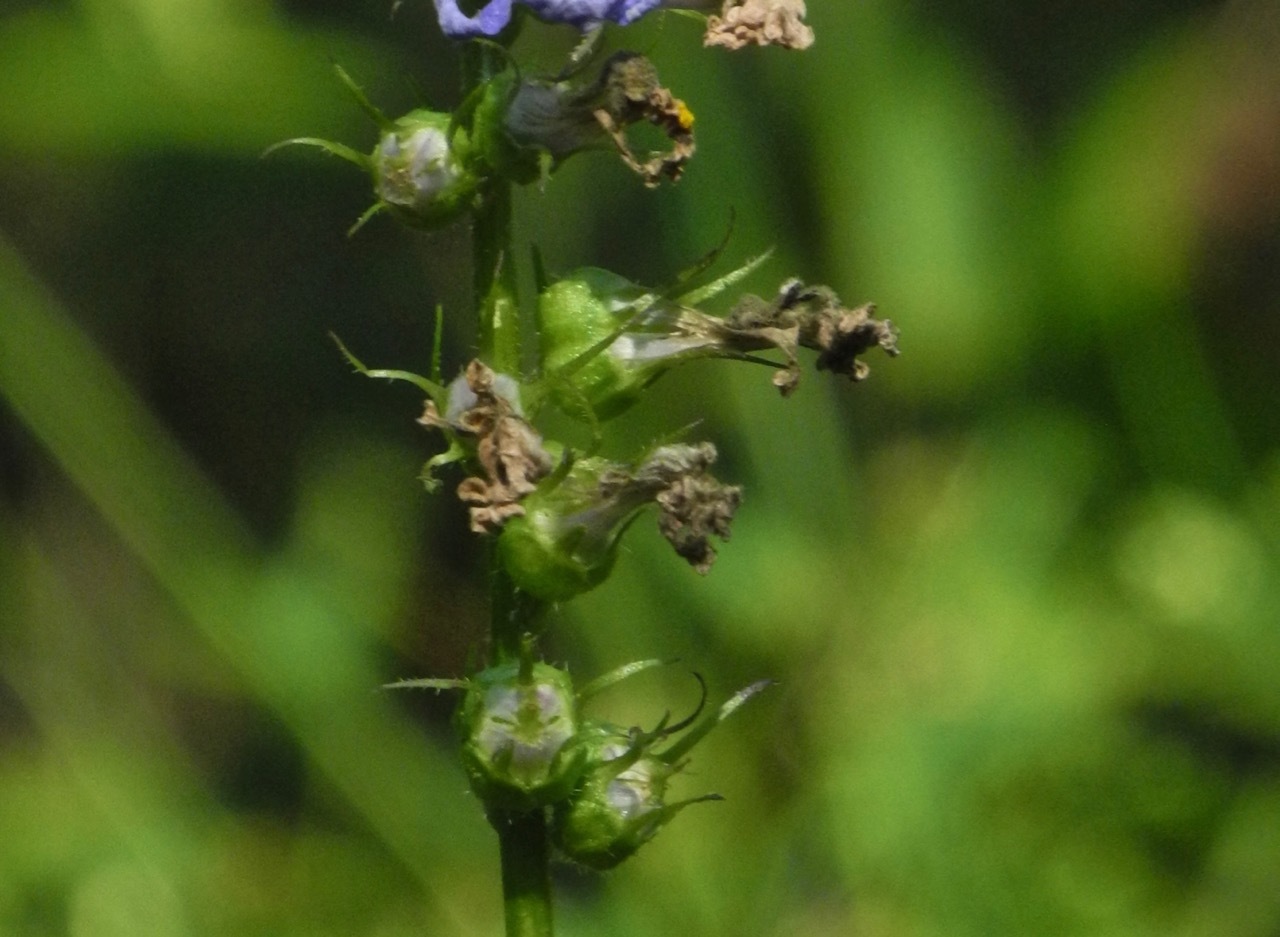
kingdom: Plantae
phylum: Tracheophyta
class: Magnoliopsida
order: Asterales
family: Campanulaceae
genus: Lobelia
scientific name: Lobelia georgiana
